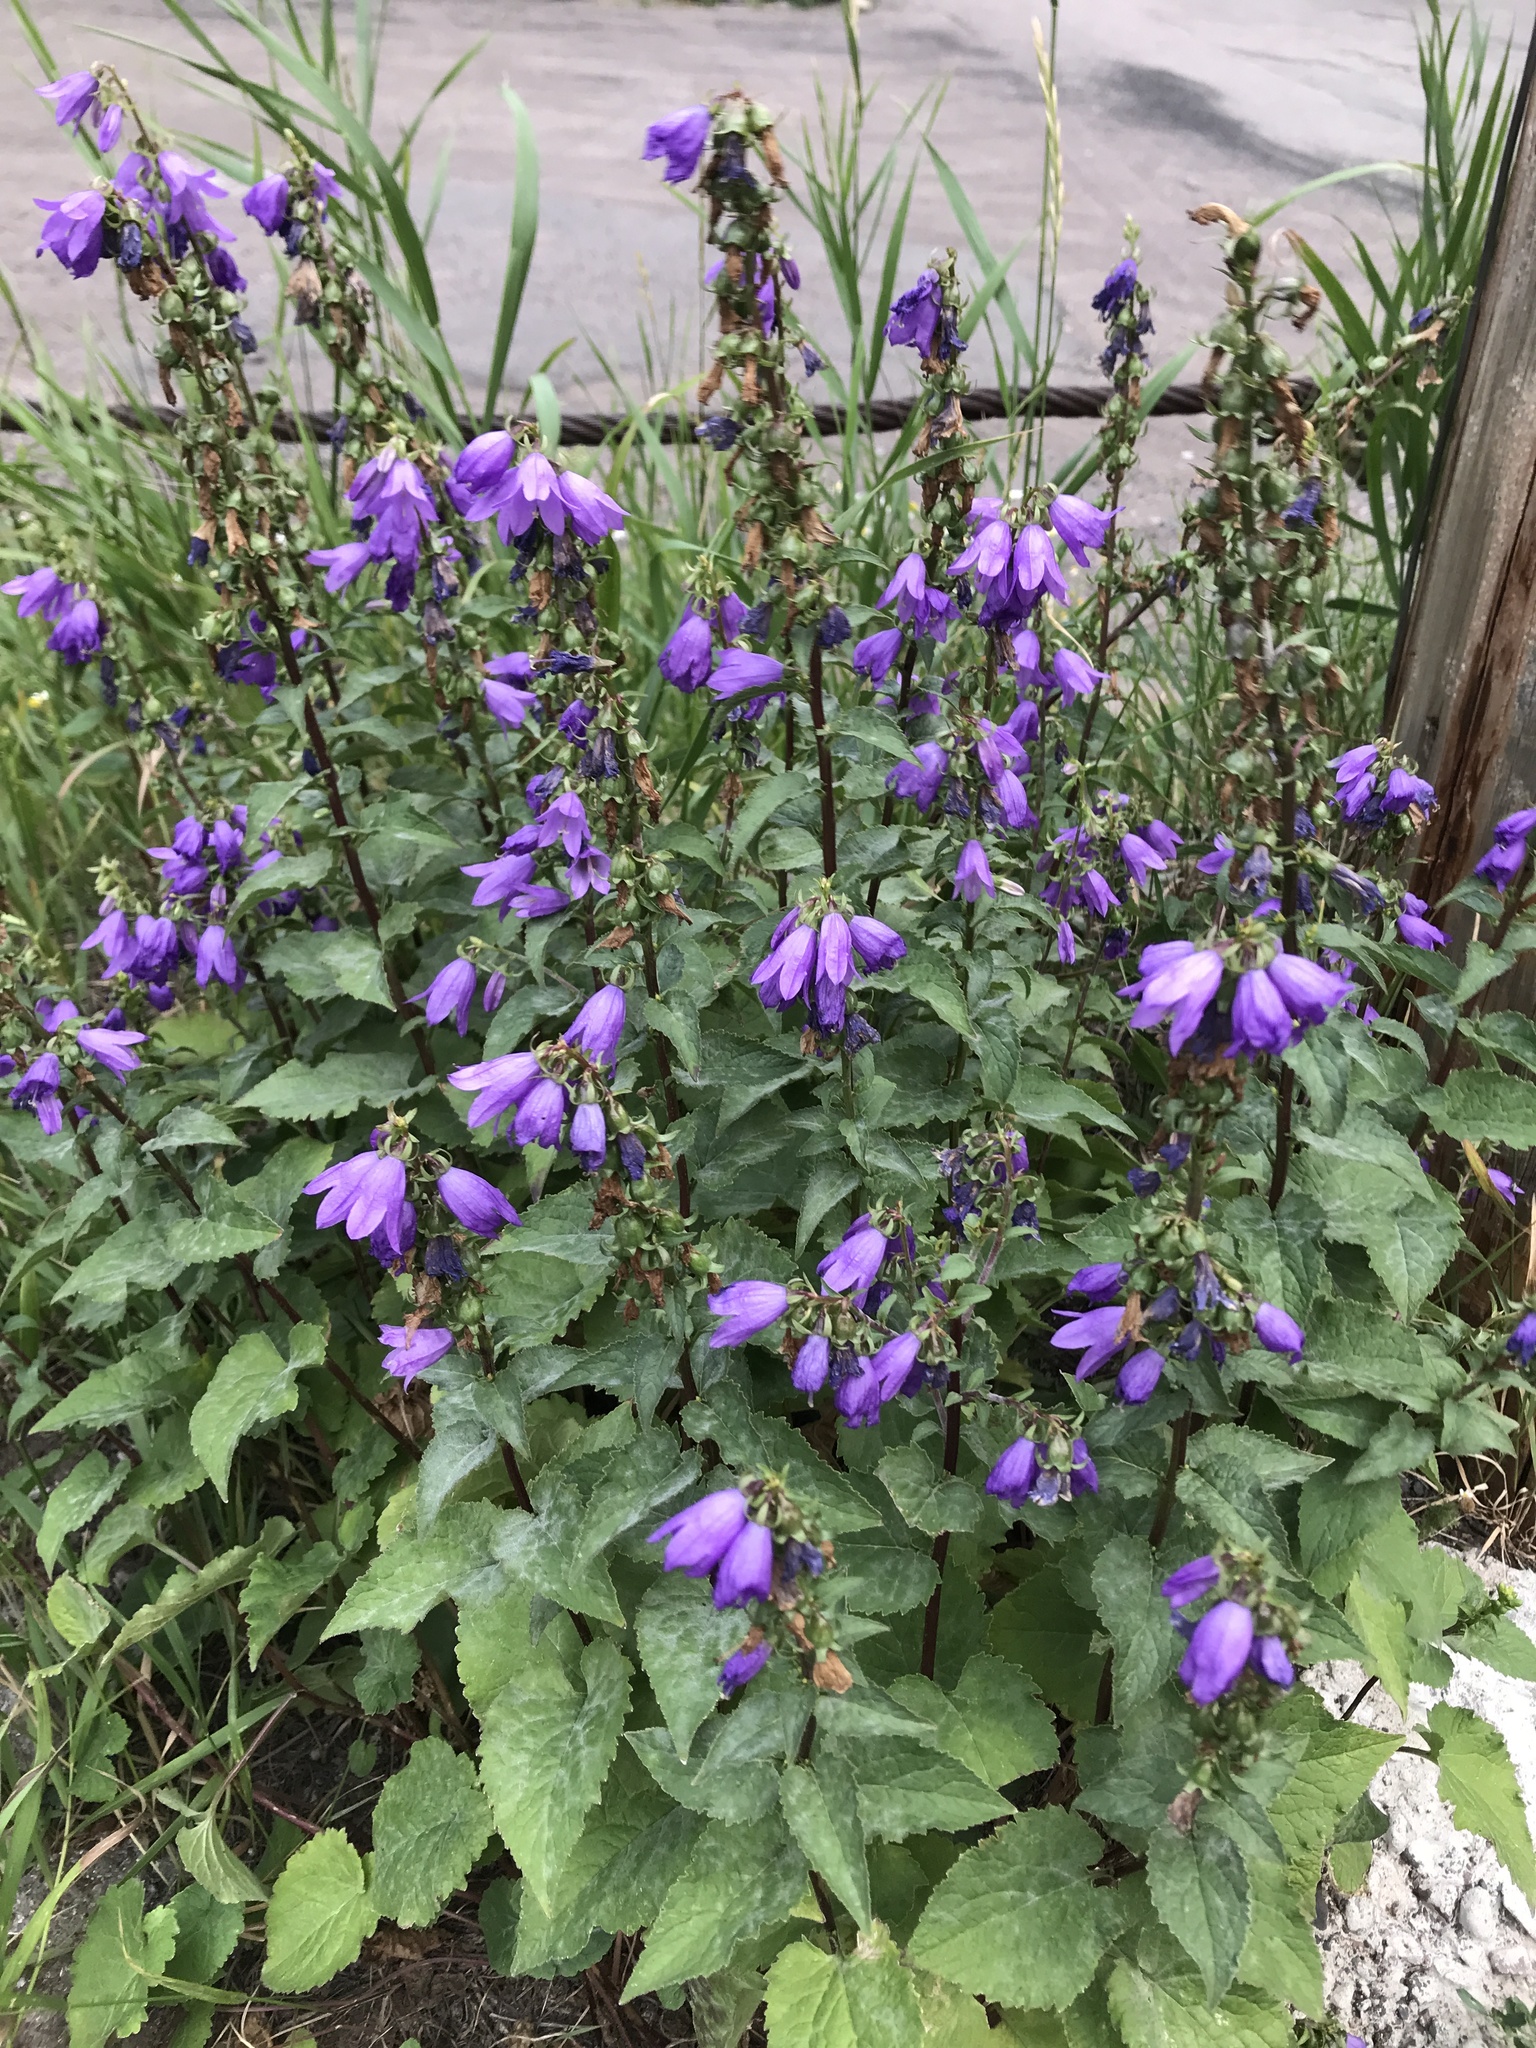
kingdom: Plantae
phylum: Tracheophyta
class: Magnoliopsida
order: Asterales
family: Campanulaceae
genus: Campanula
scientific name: Campanula rapunculoides
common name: Creeping bellflower
